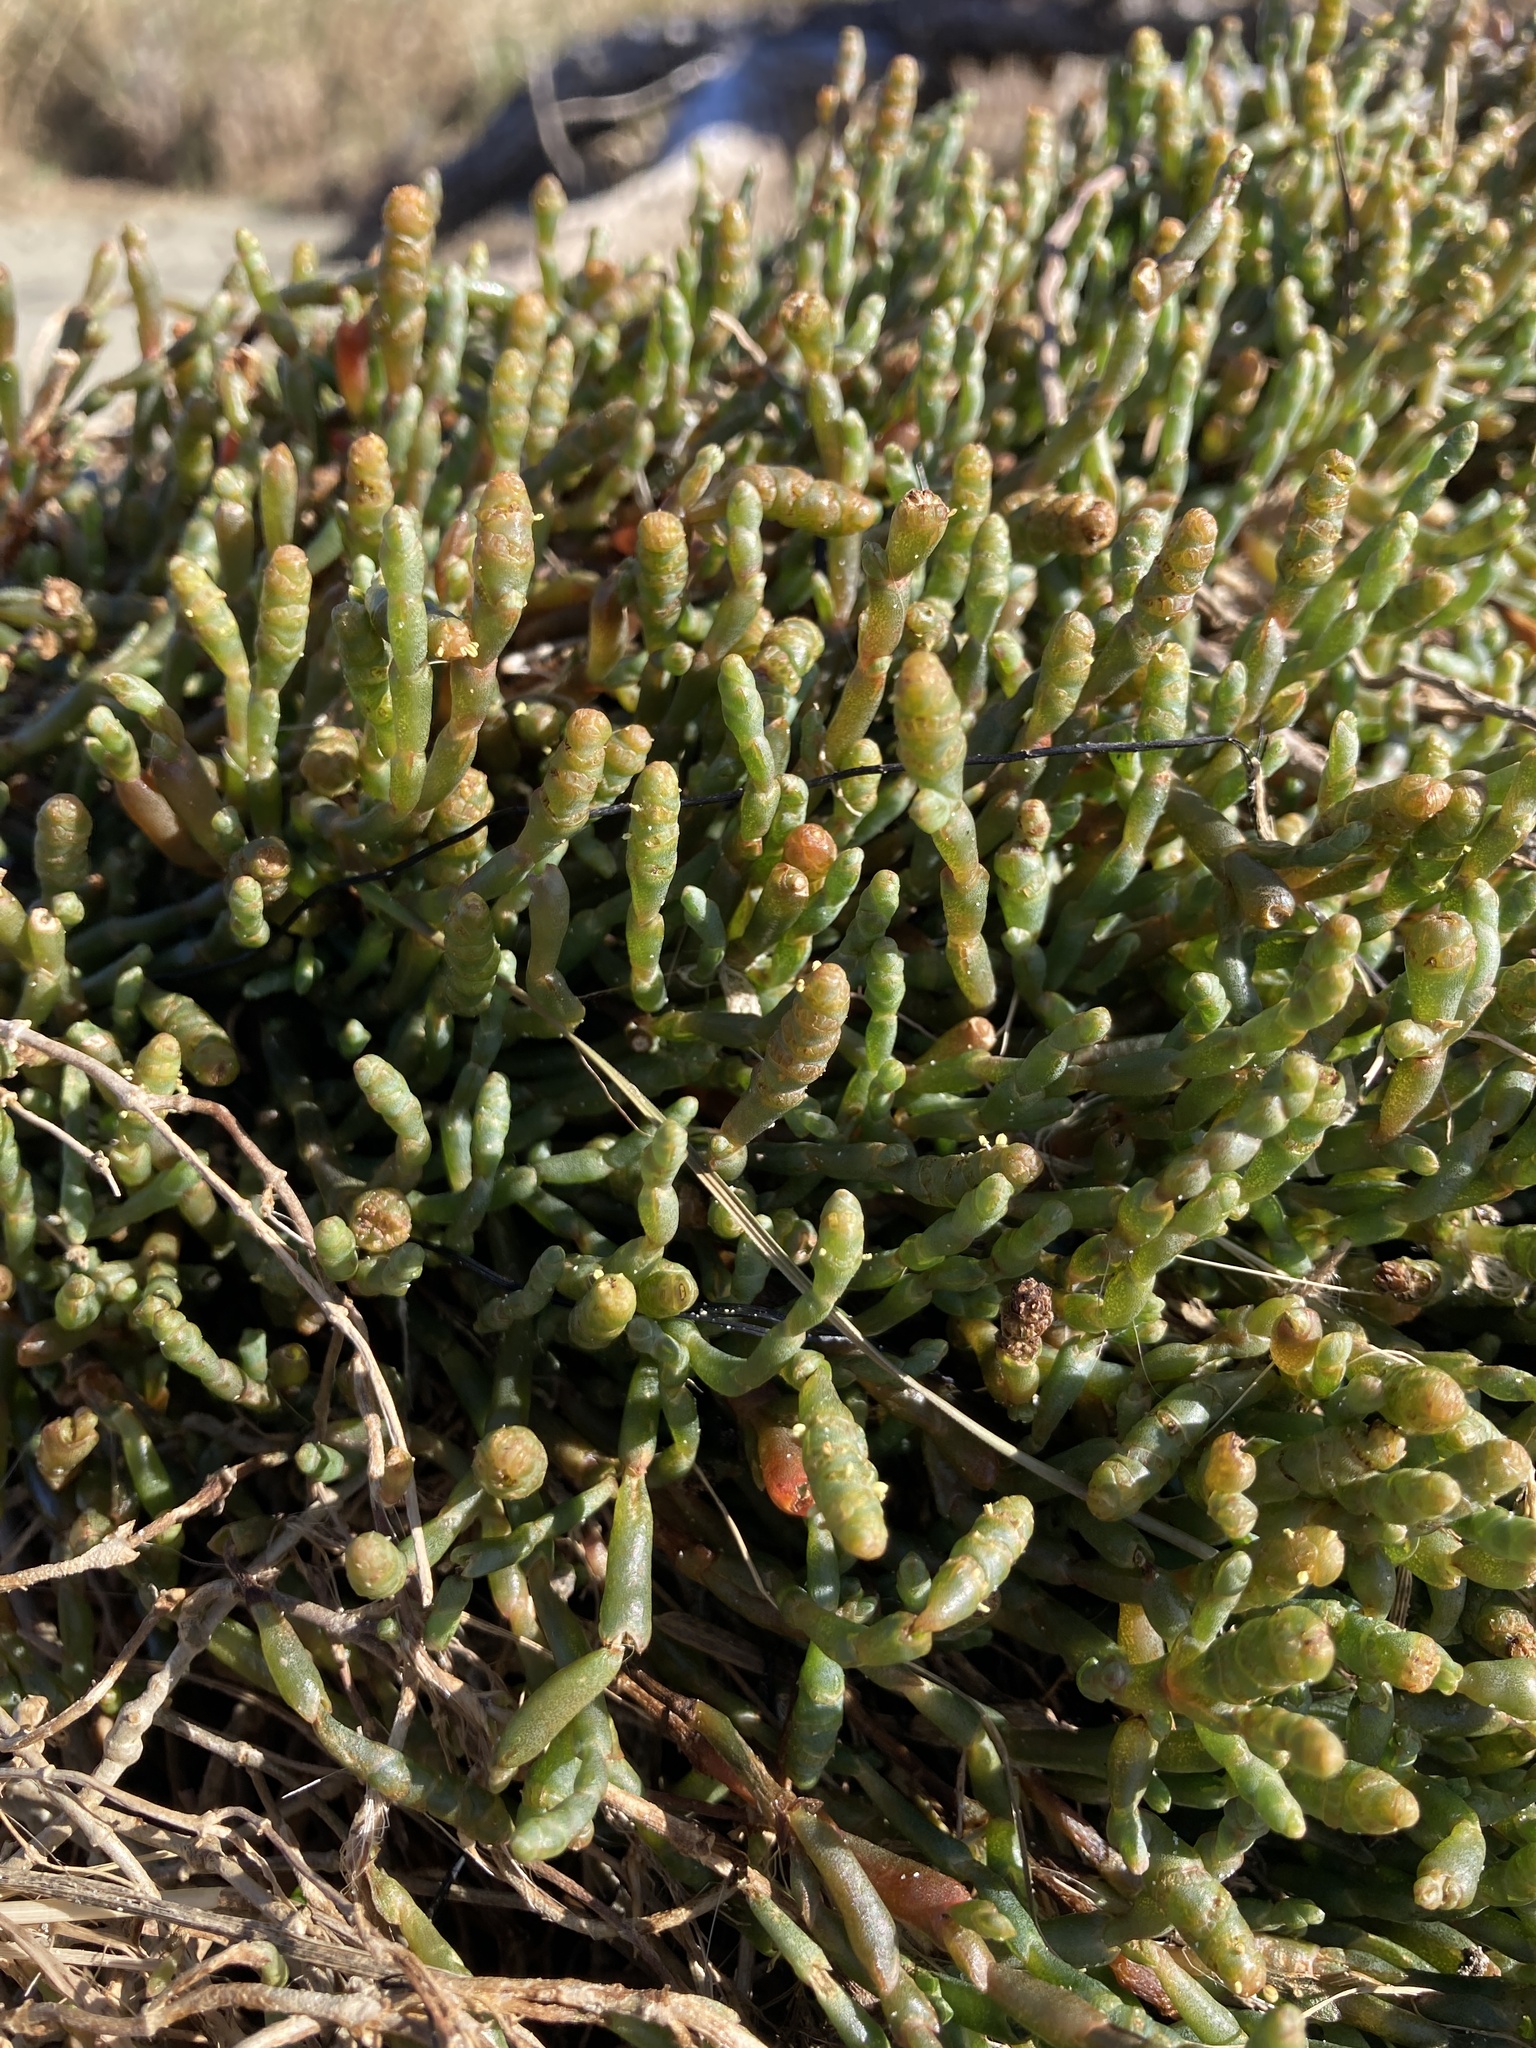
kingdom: Plantae
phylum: Tracheophyta
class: Magnoliopsida
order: Caryophyllales
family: Amaranthaceae
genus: Salicornia
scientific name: Salicornia quinqueflora
